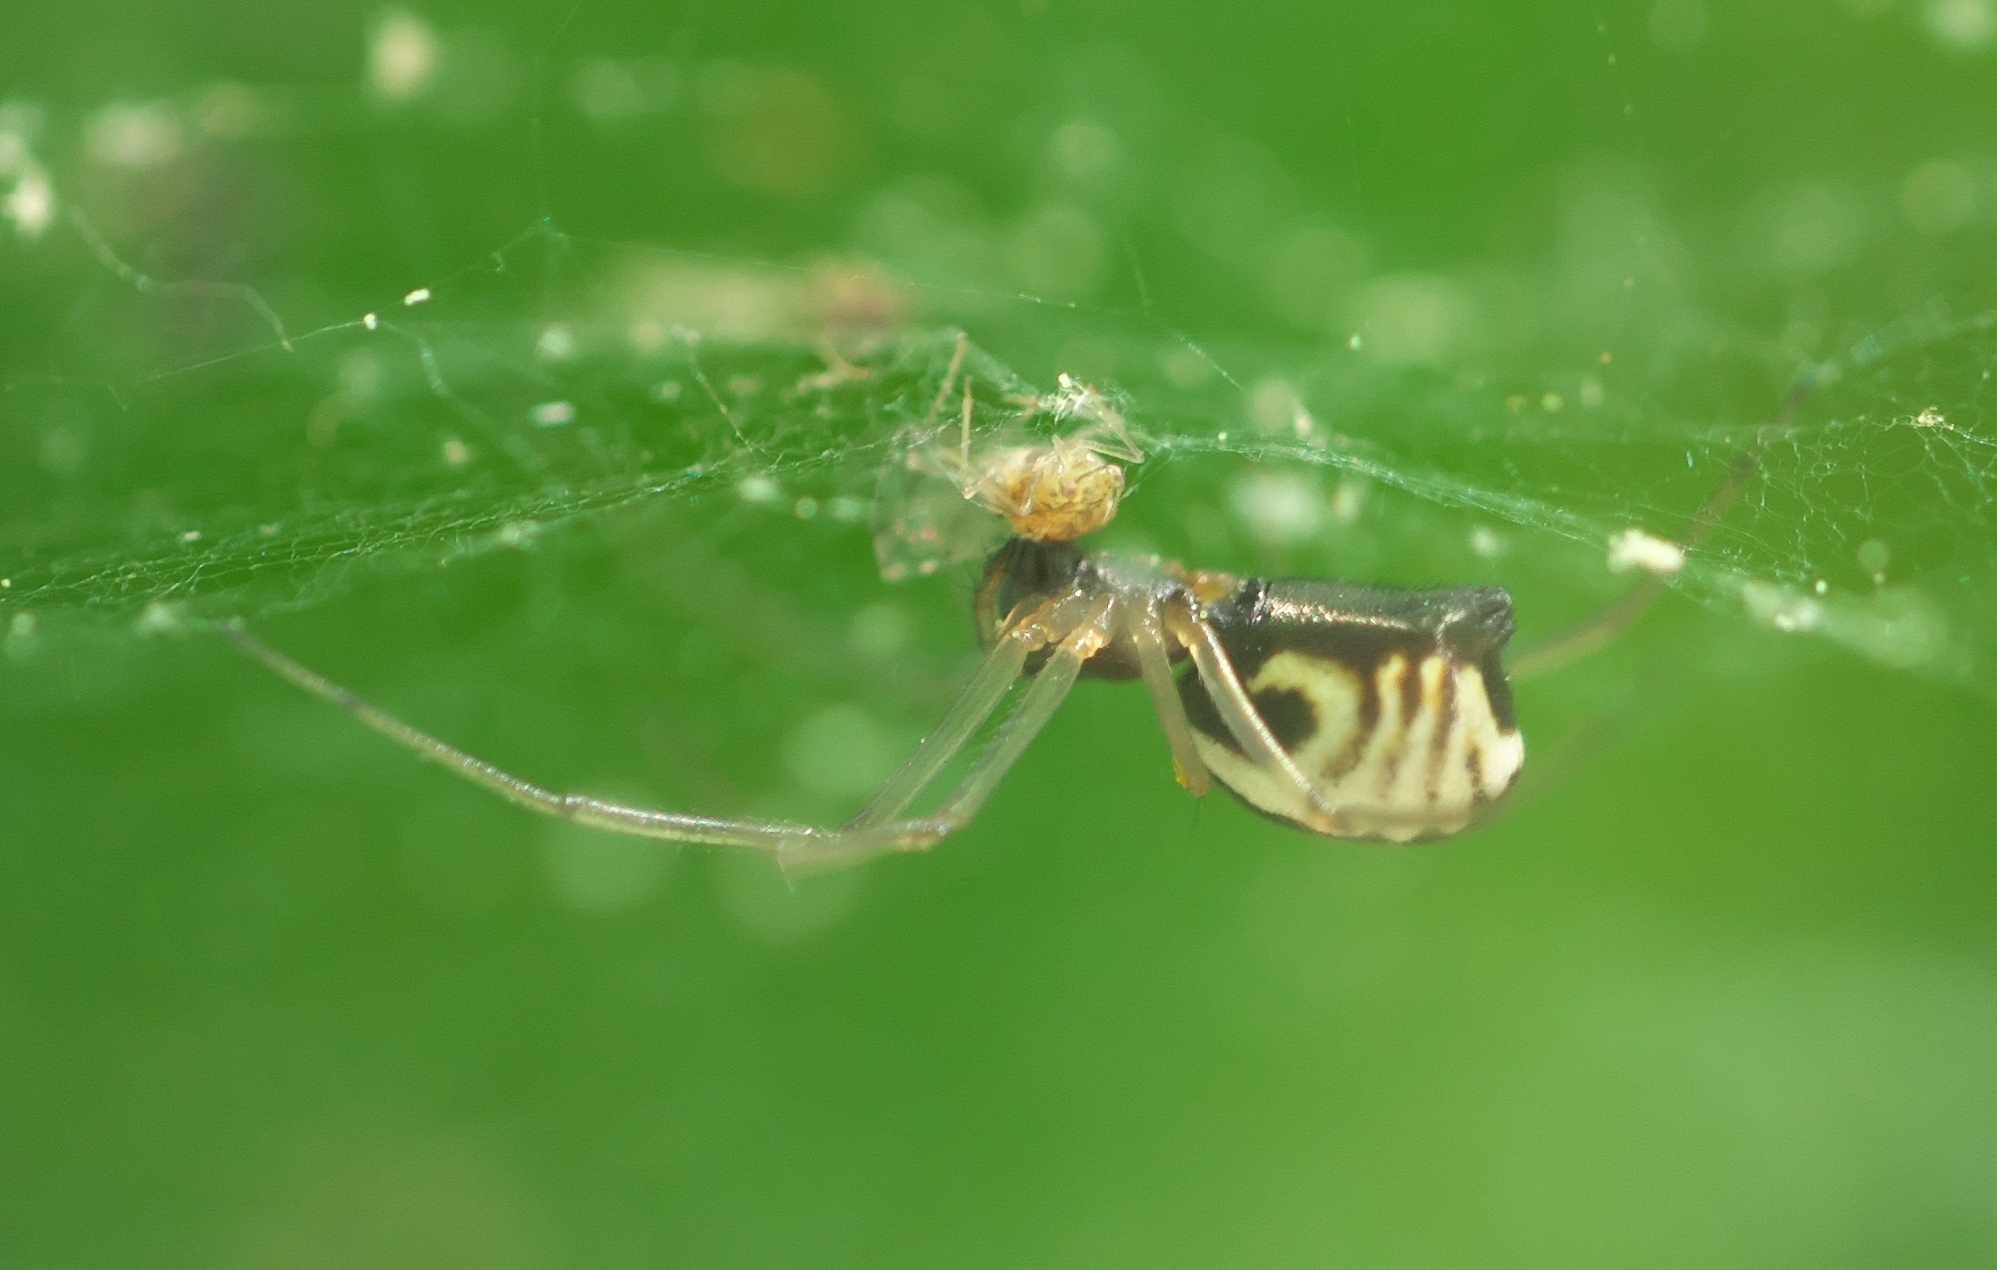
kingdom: Animalia
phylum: Arthropoda
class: Arachnida
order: Araneae
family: Linyphiidae
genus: Frontinella
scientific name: Frontinella pyramitela
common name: Bowl-and-doily spider
